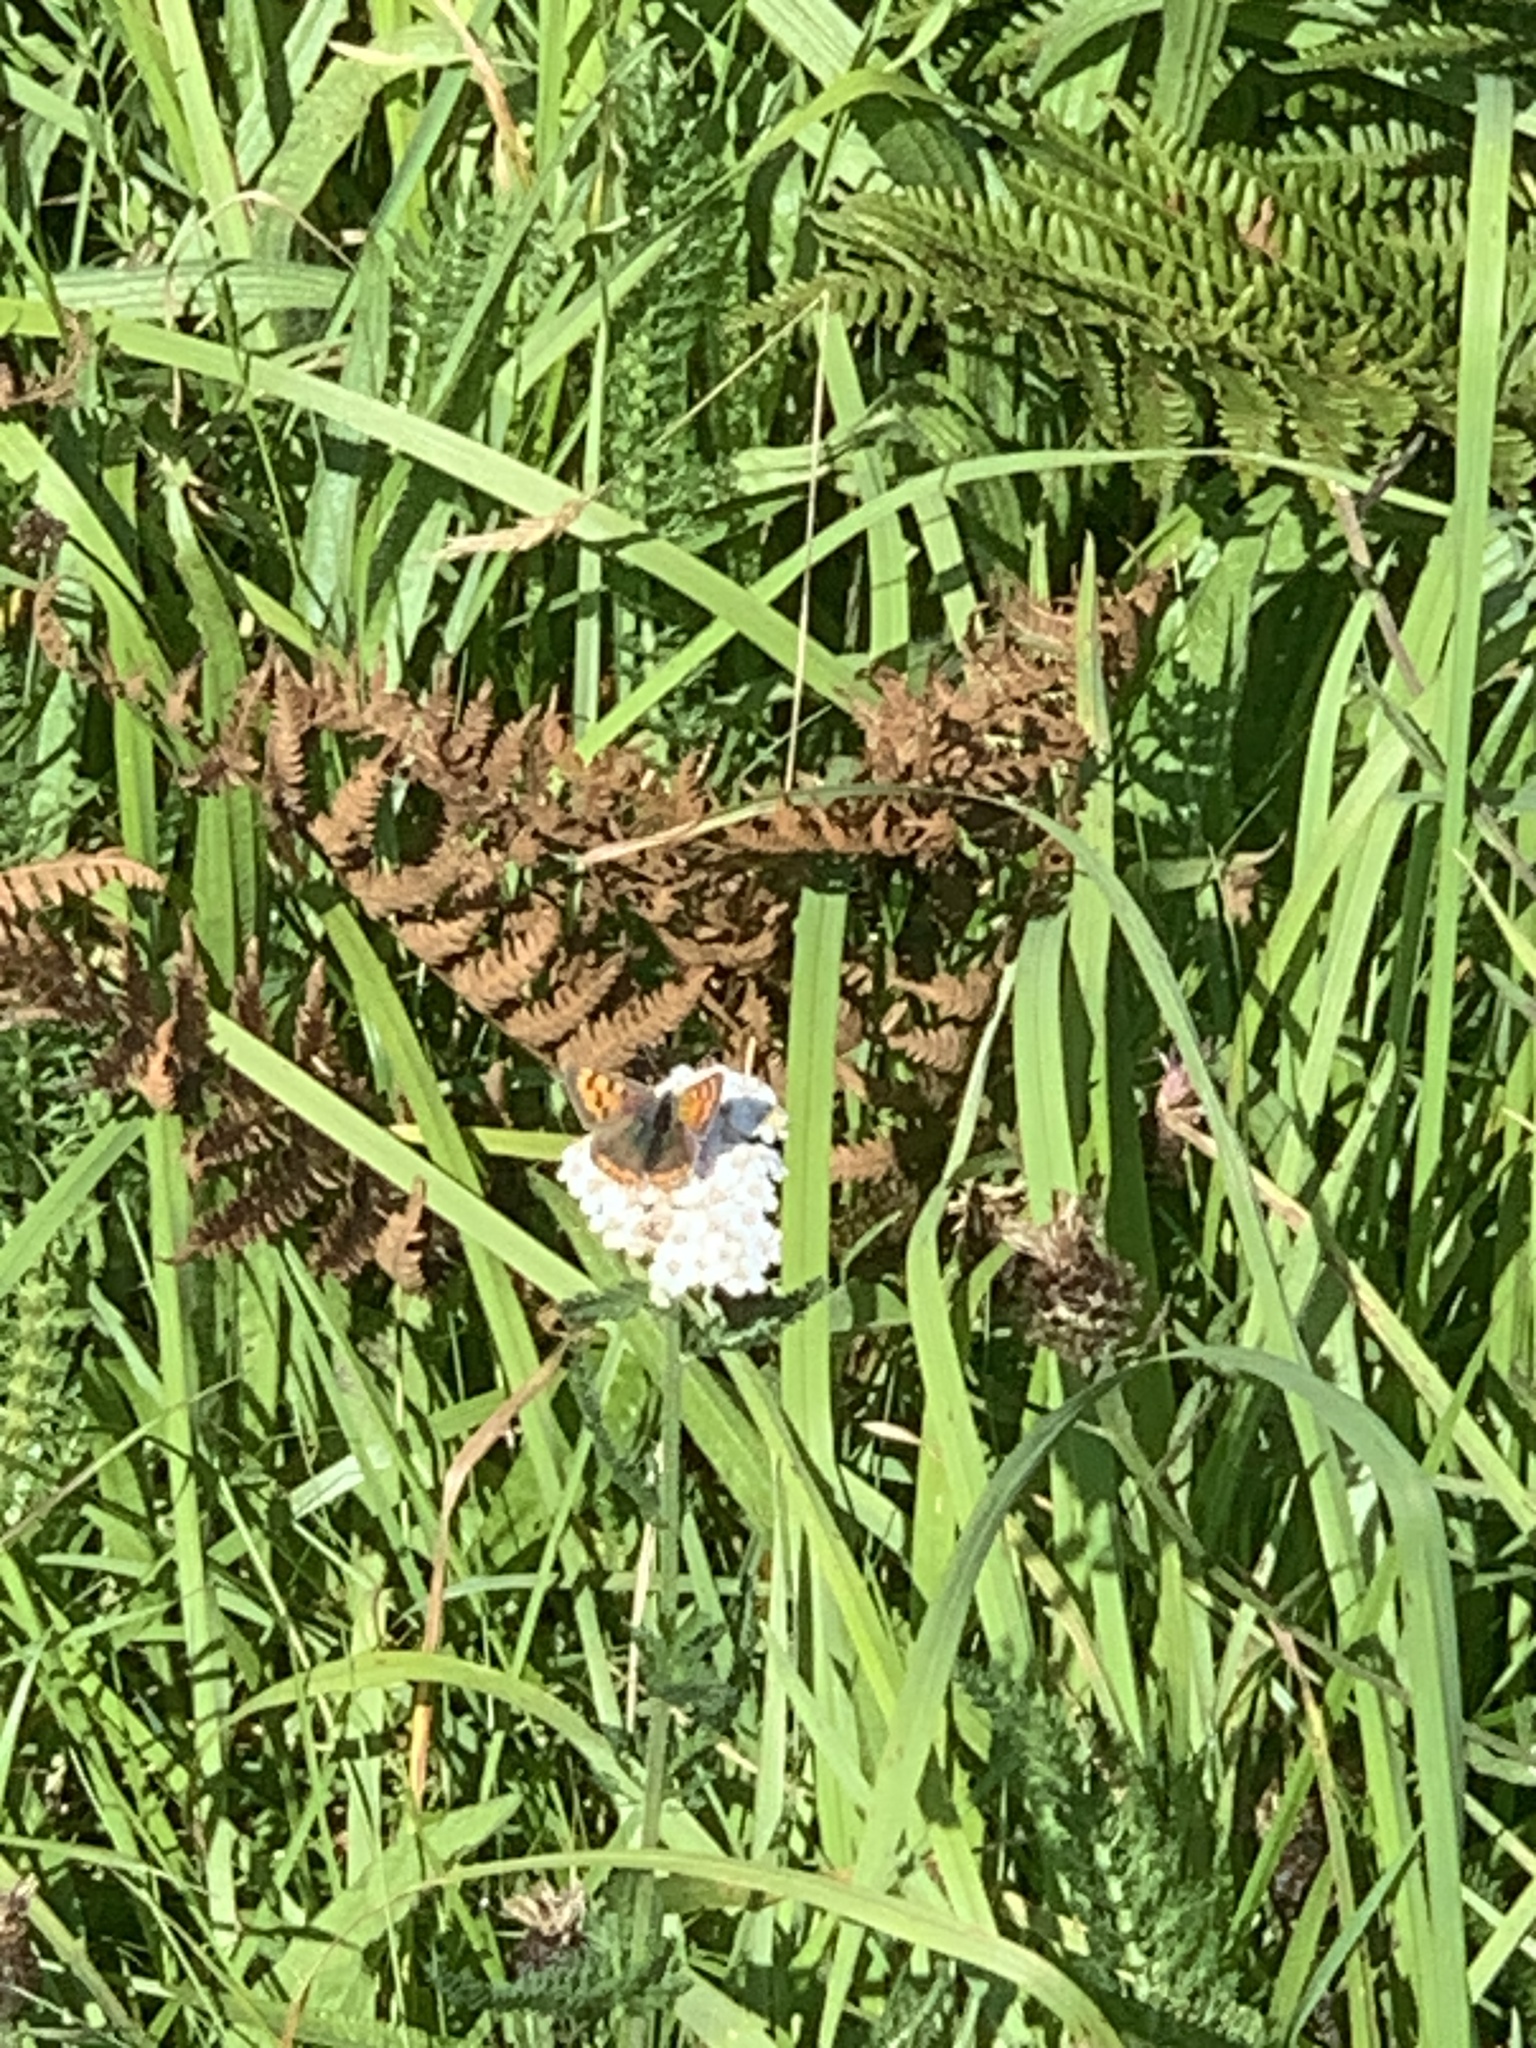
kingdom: Animalia
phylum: Arthropoda
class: Insecta
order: Lepidoptera
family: Lycaenidae
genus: Lycaena
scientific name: Lycaena phlaeas
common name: Small copper
